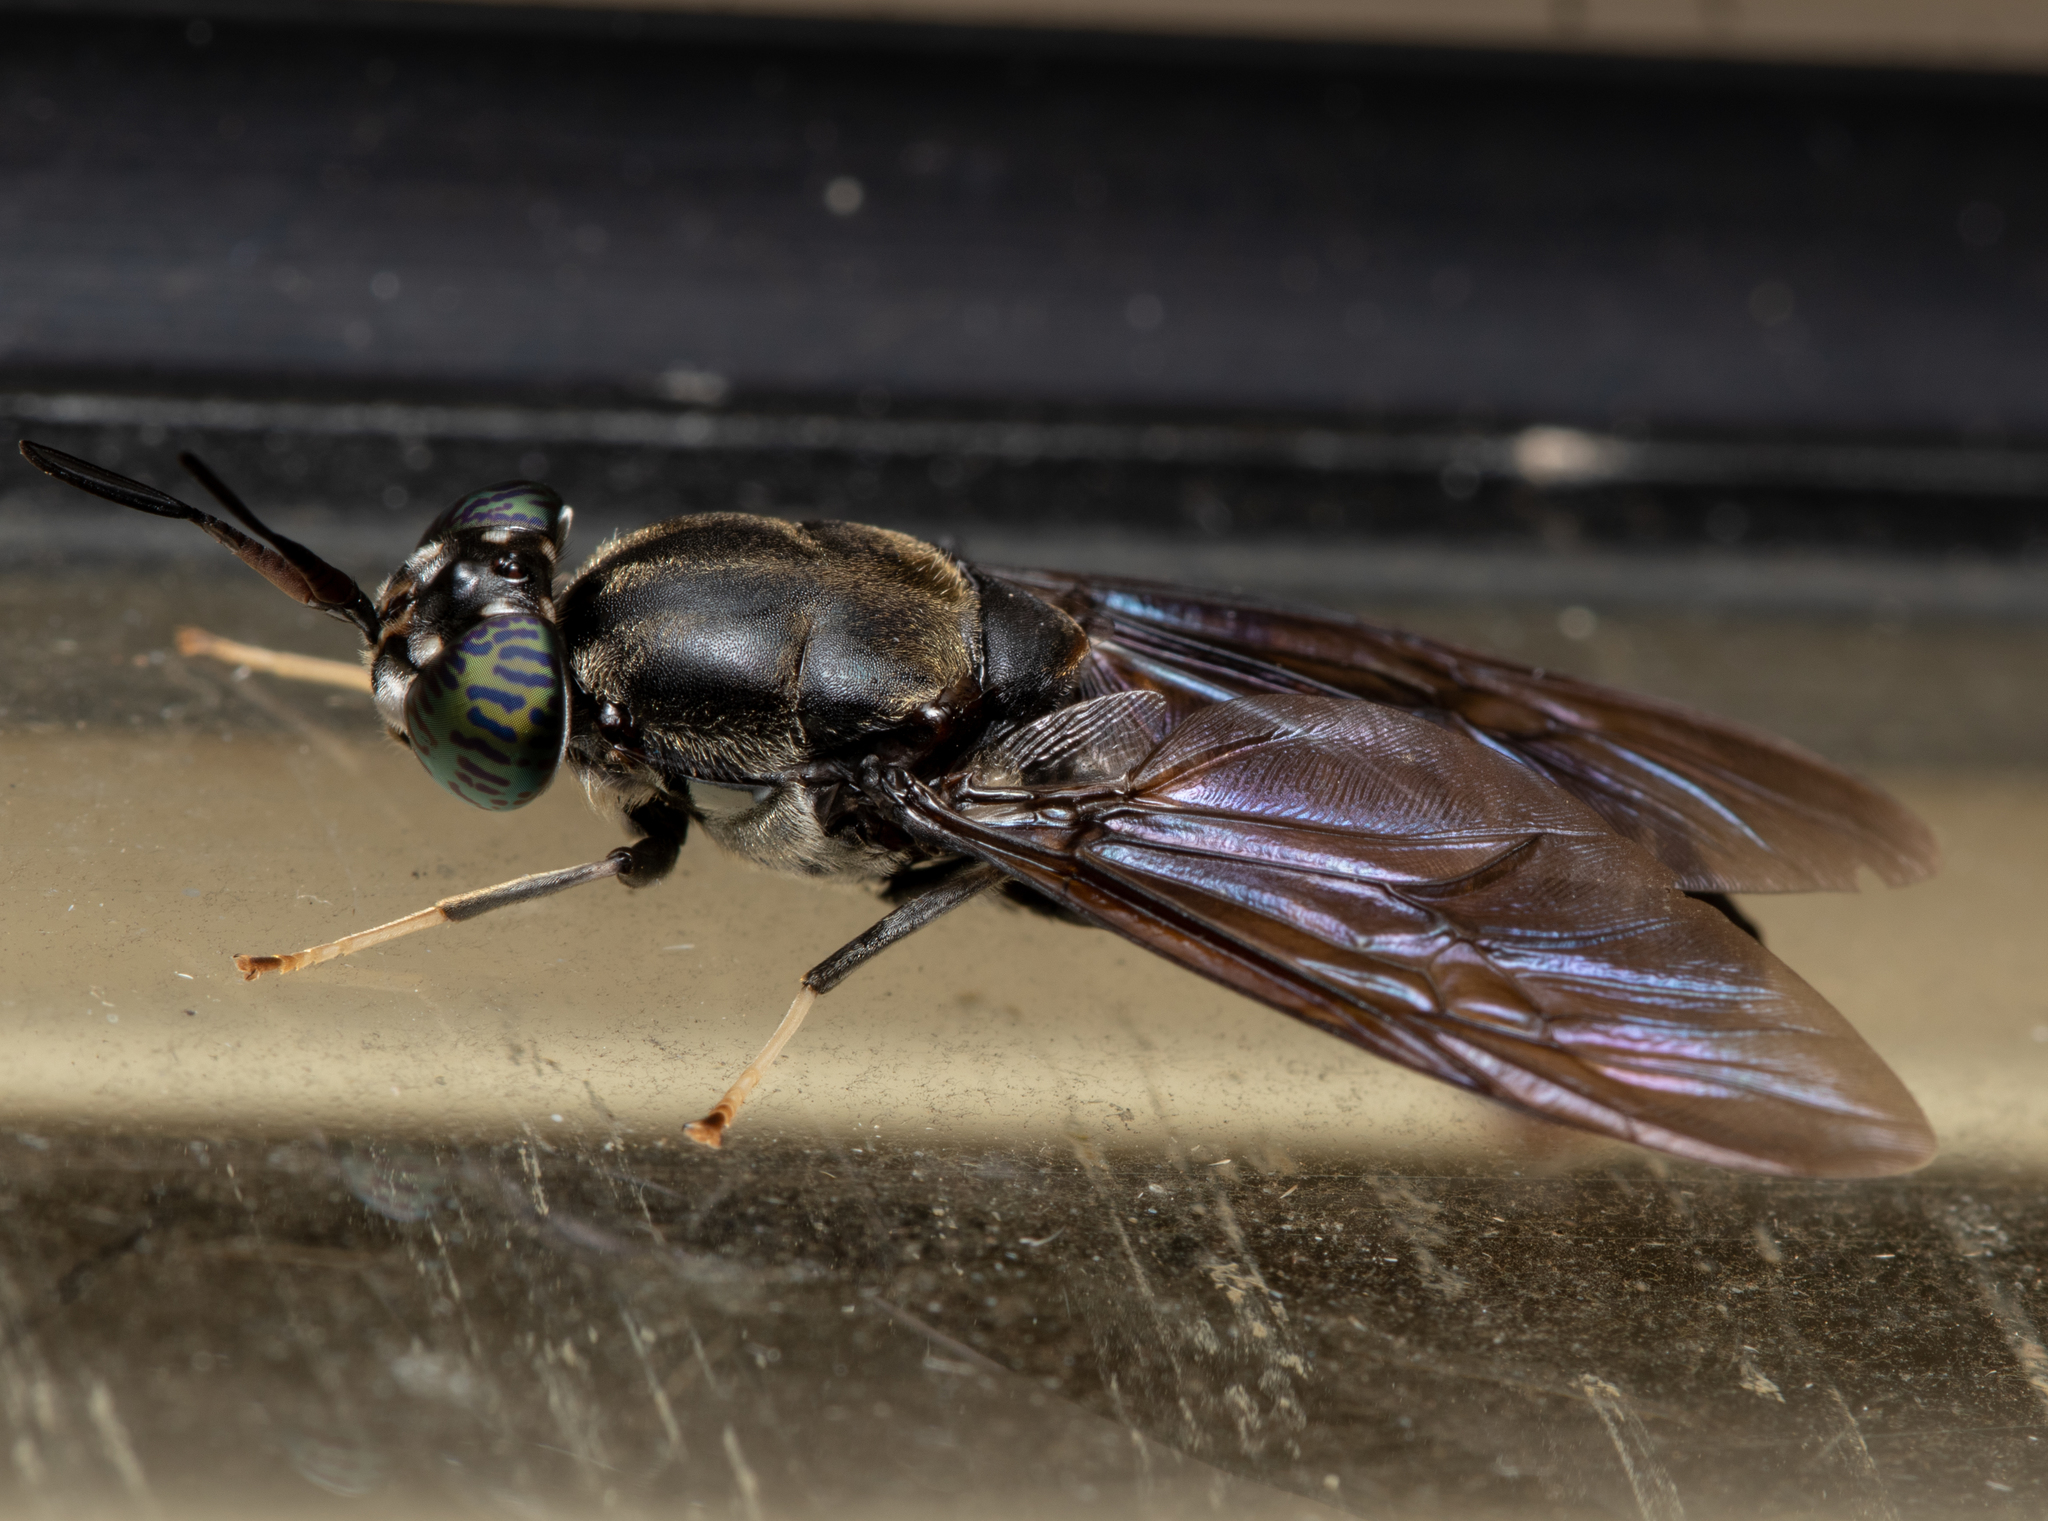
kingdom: Animalia
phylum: Arthropoda
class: Insecta
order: Diptera
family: Stratiomyidae
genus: Hermetia
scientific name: Hermetia illucens
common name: Black soldier fly
